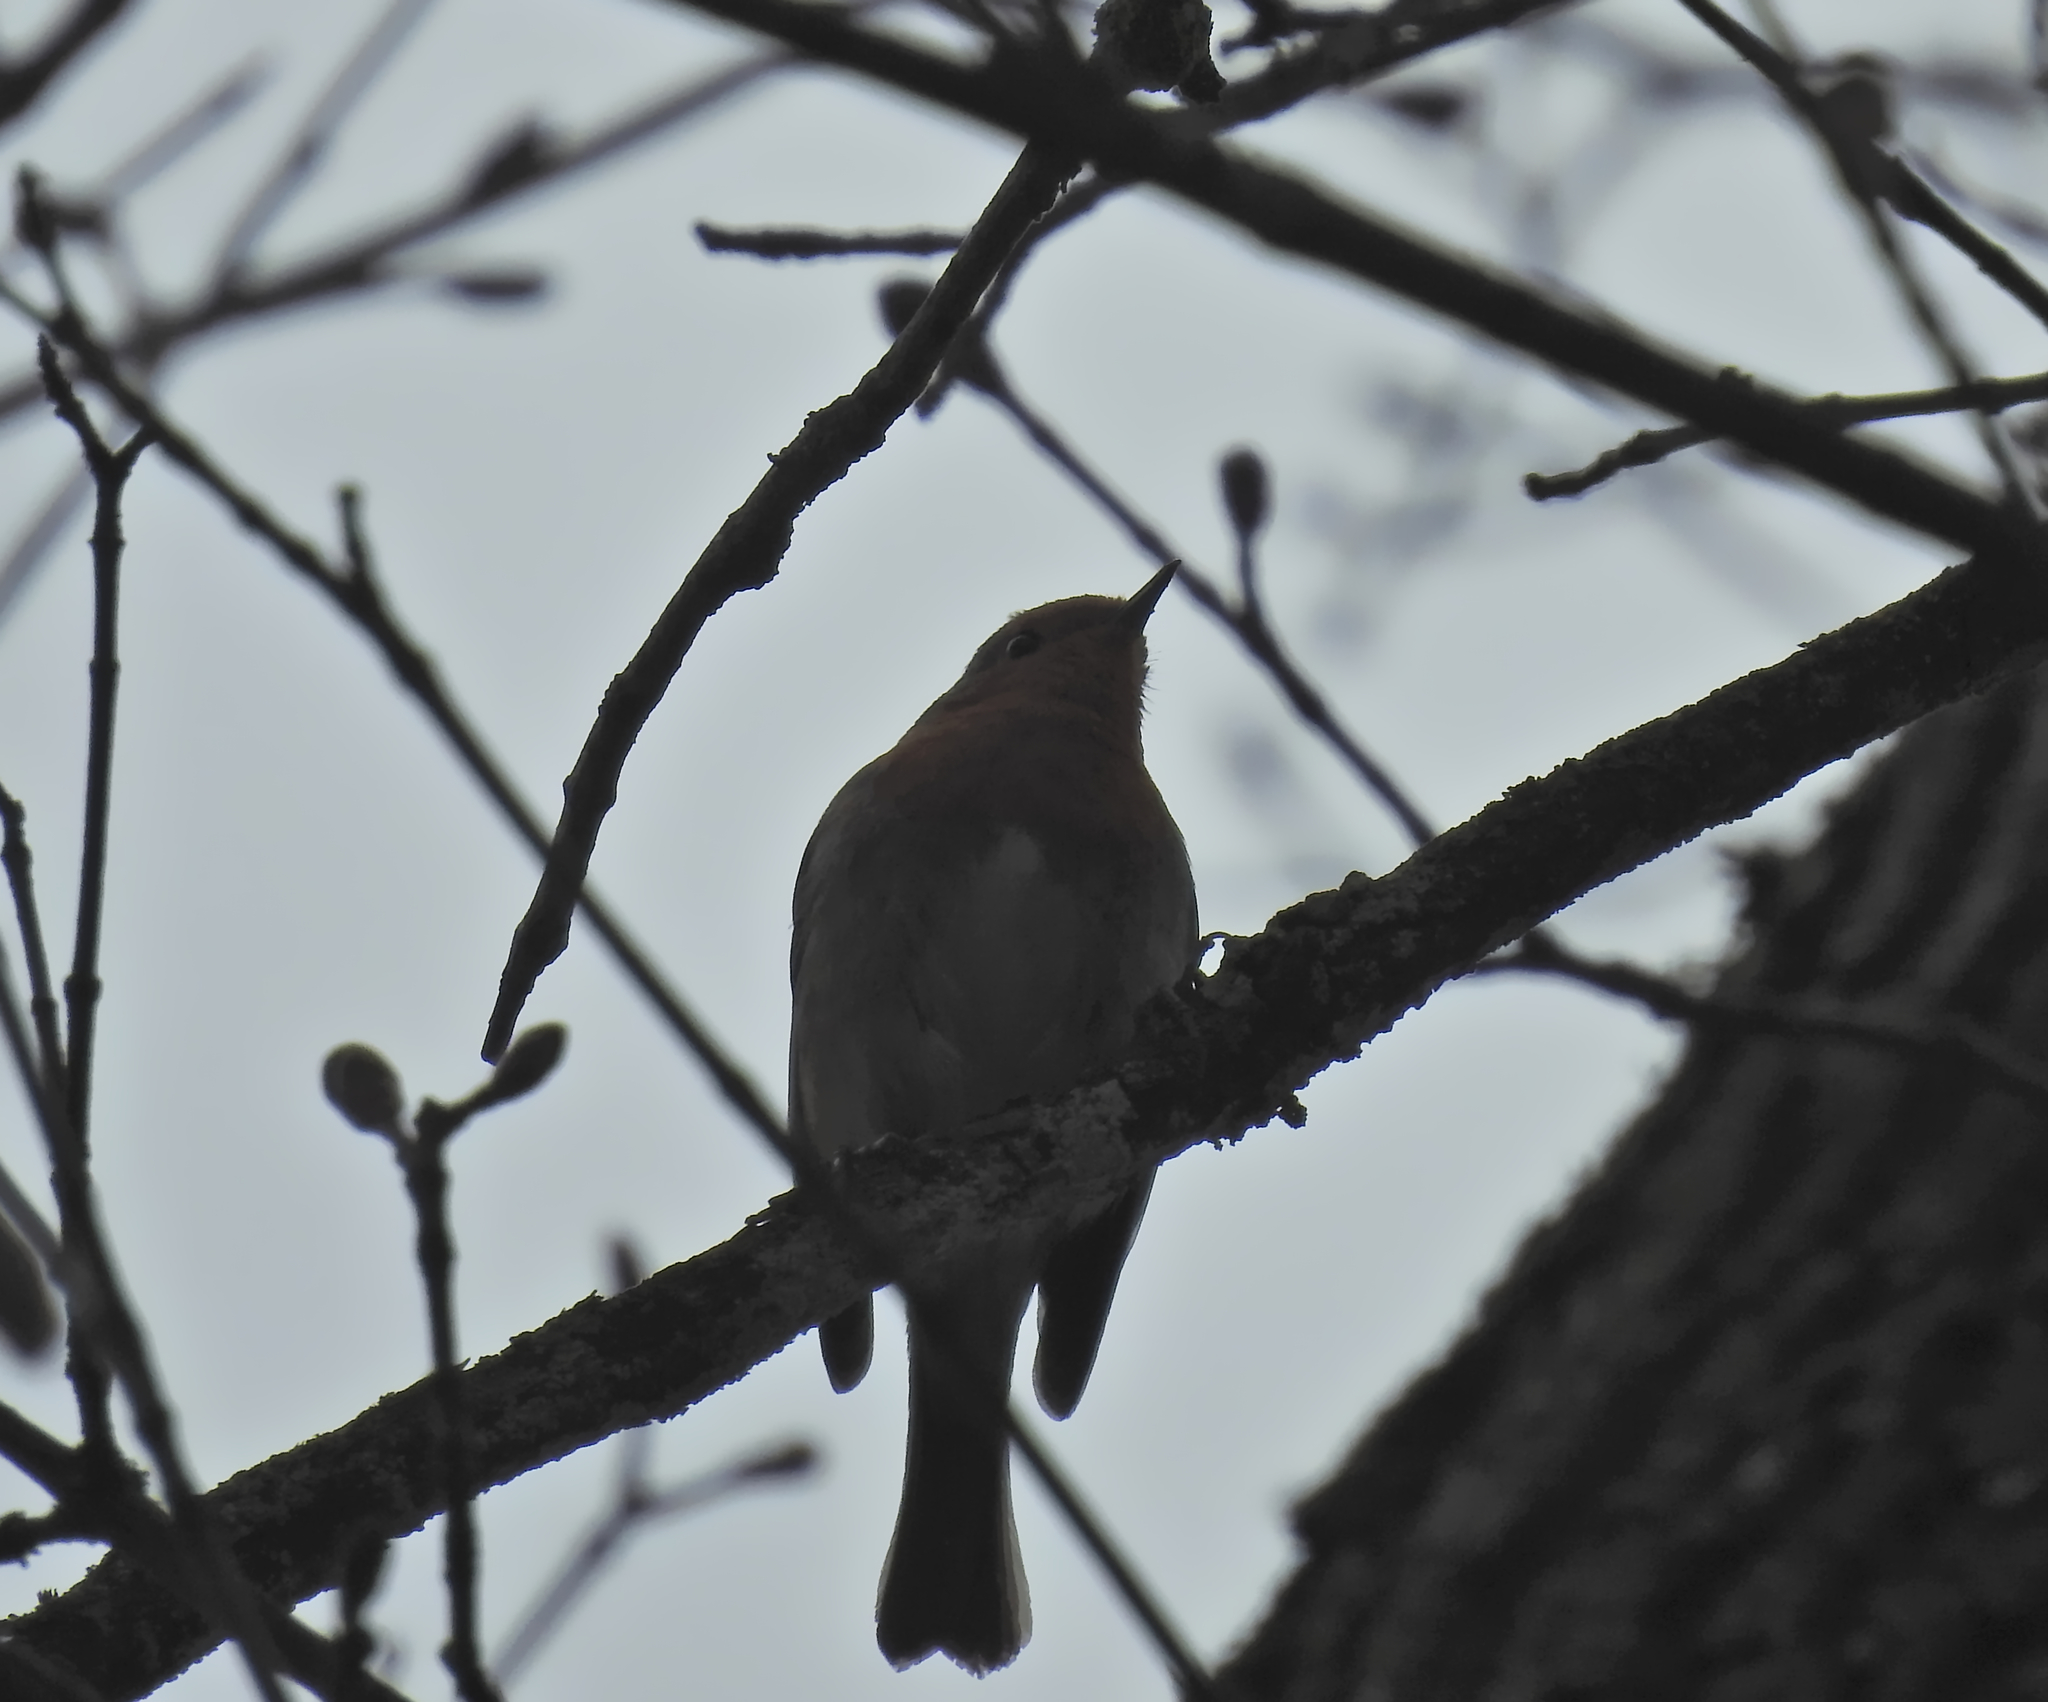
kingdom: Animalia
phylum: Chordata
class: Aves
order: Passeriformes
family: Muscicapidae
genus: Erithacus
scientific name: Erithacus rubecula
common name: European robin
